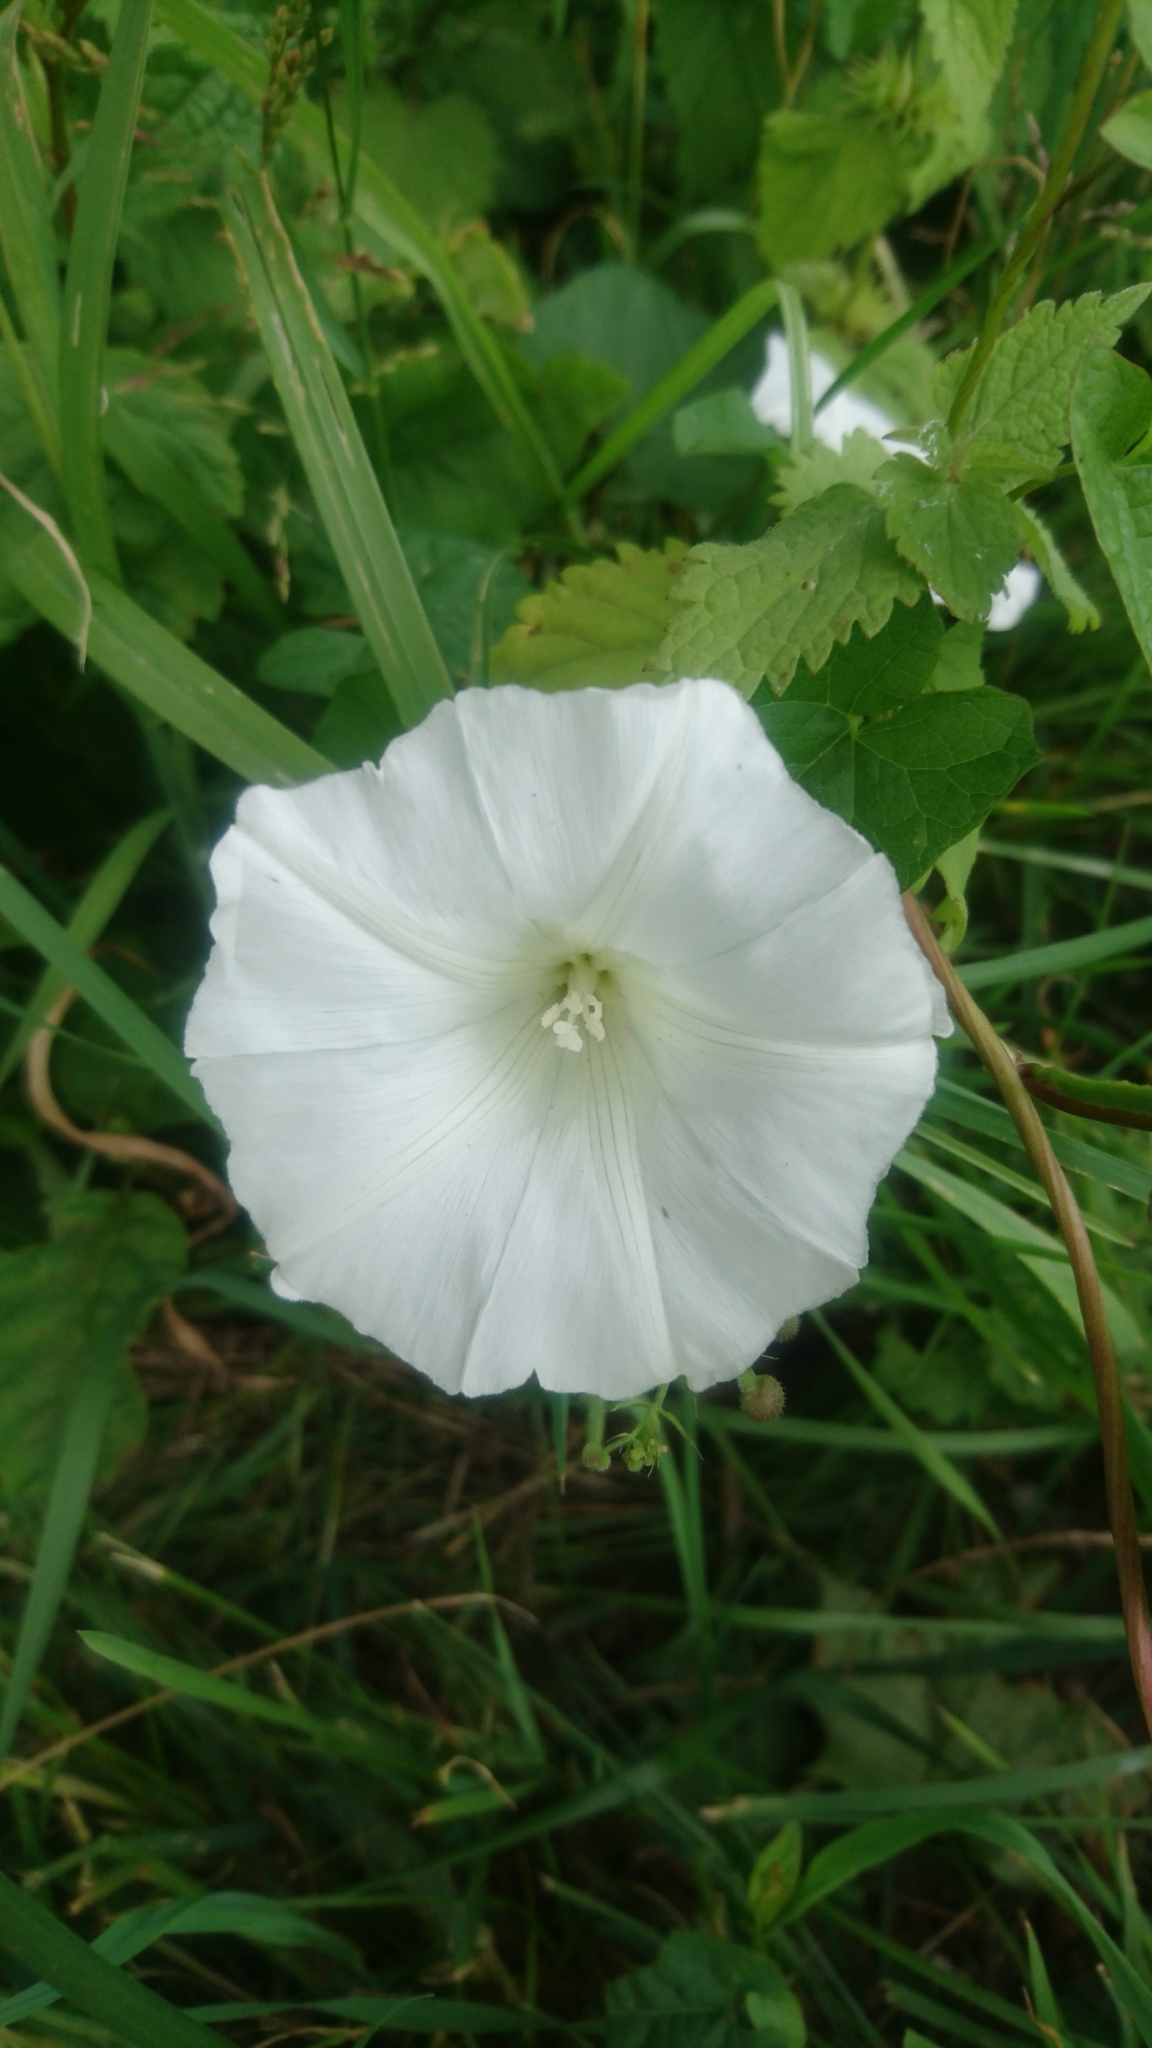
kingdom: Plantae
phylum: Tracheophyta
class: Magnoliopsida
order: Solanales
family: Convolvulaceae
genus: Calystegia
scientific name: Calystegia sepium
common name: Hedge bindweed
